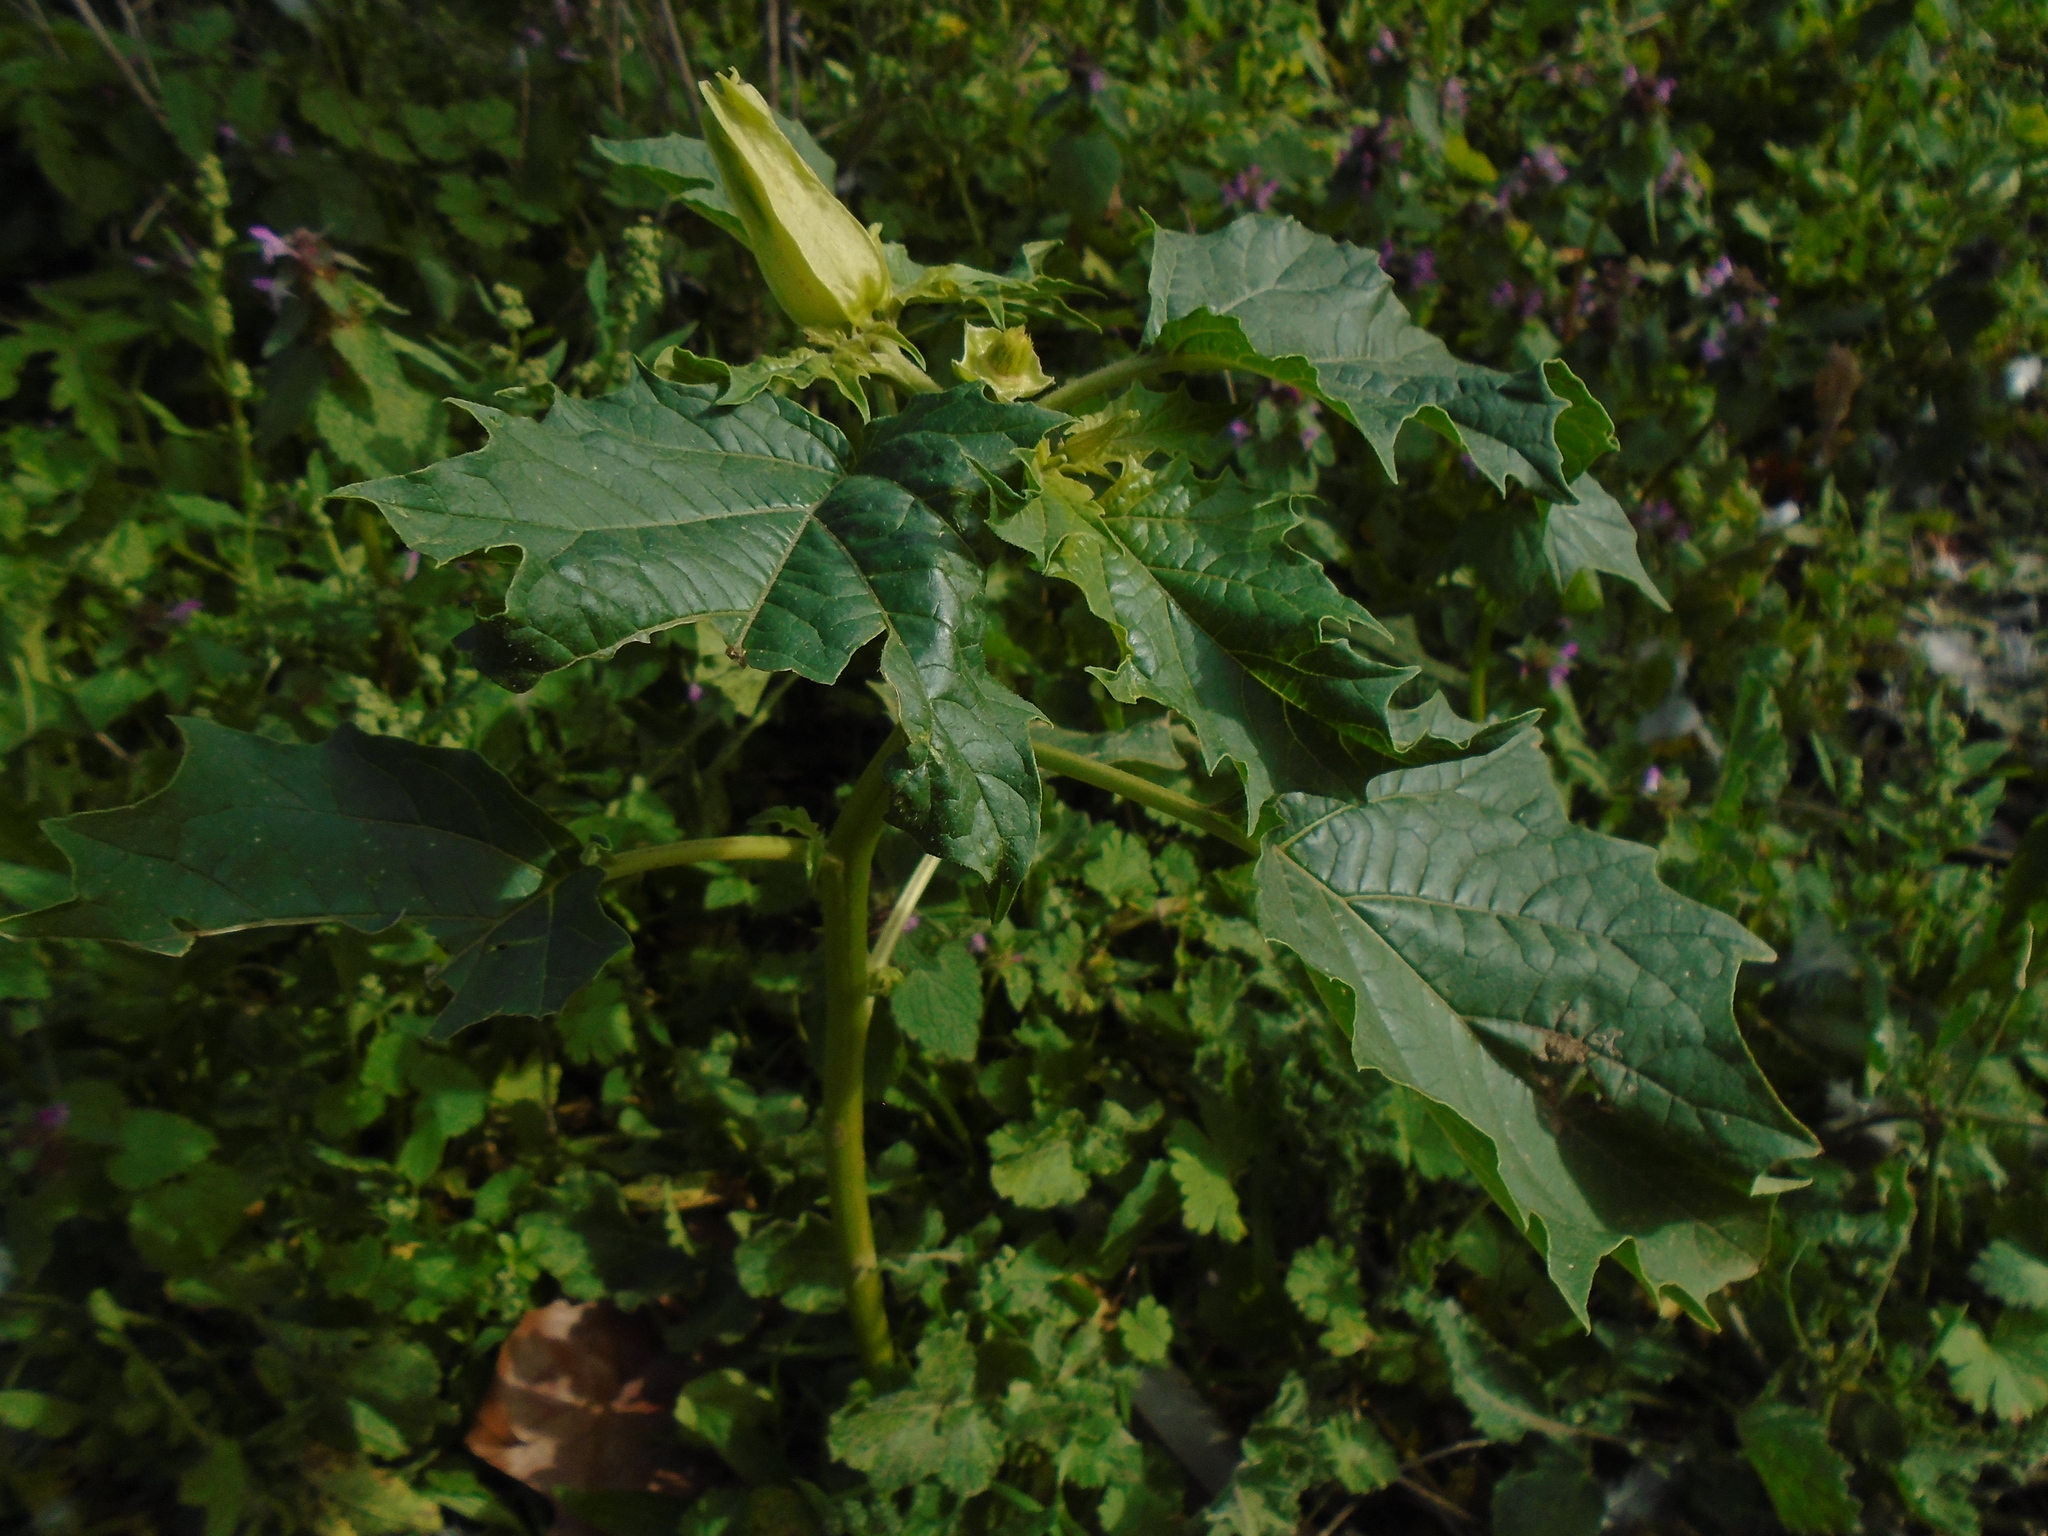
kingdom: Plantae
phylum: Tracheophyta
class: Magnoliopsida
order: Solanales
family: Solanaceae
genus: Datura
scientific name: Datura stramonium
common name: Thorn-apple
